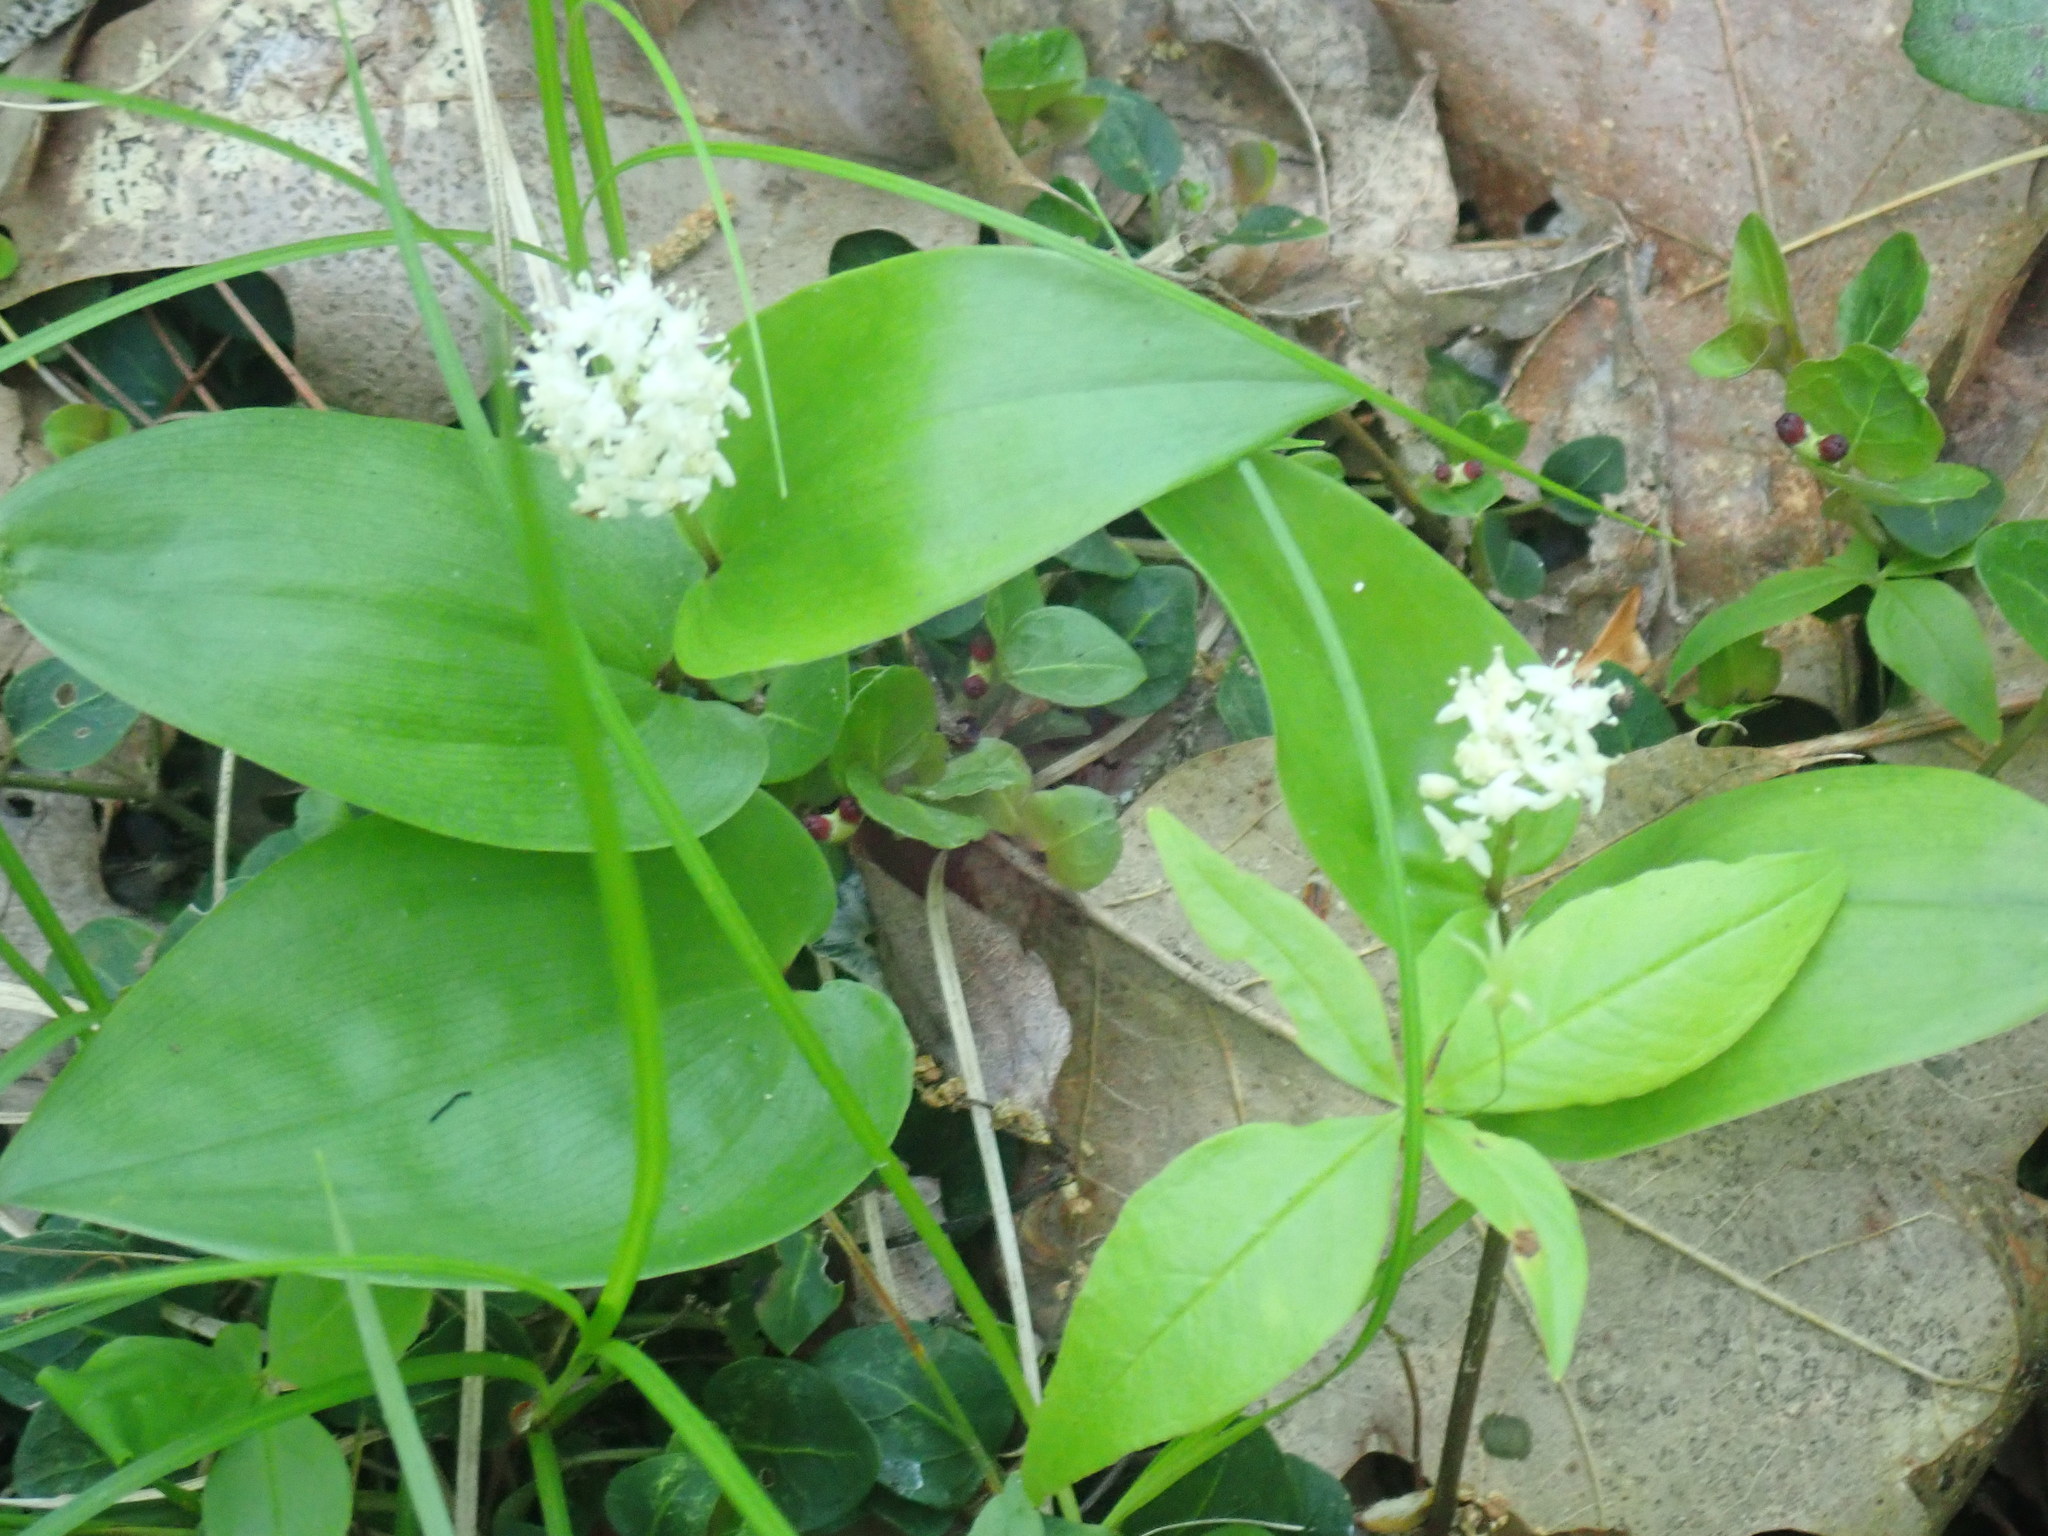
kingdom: Plantae
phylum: Tracheophyta
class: Liliopsida
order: Asparagales
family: Asparagaceae
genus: Maianthemum
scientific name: Maianthemum canadense
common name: False lily-of-the-valley
